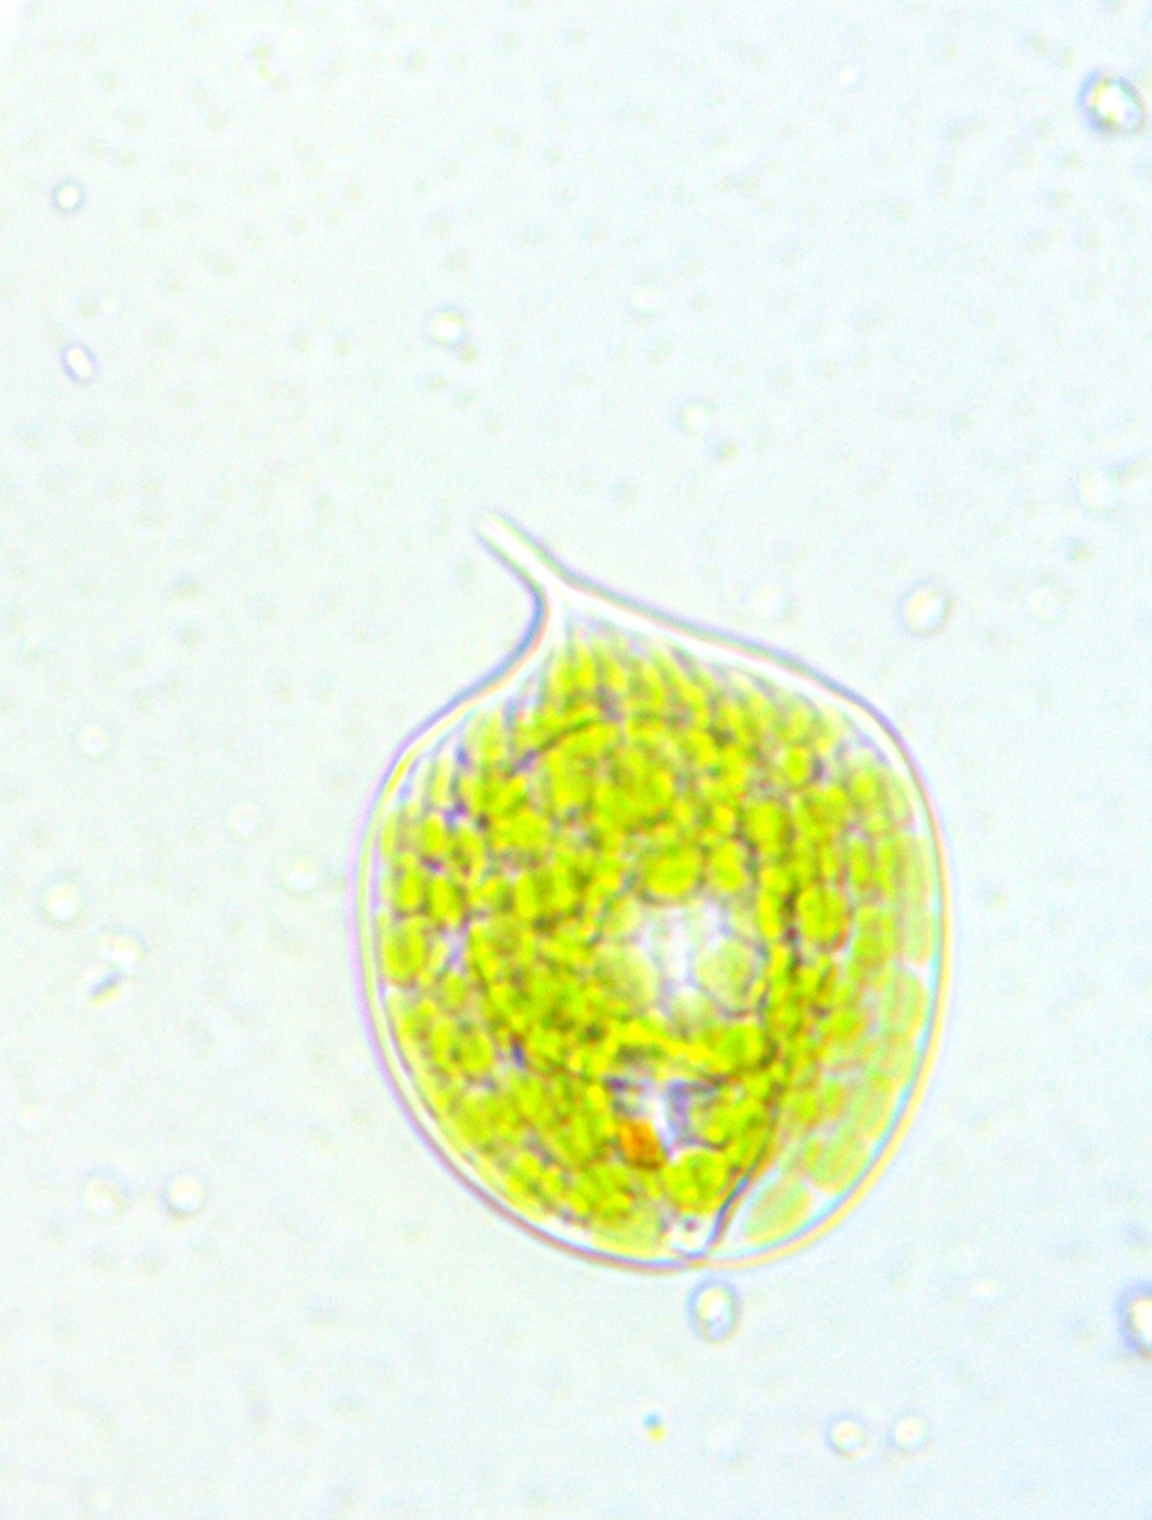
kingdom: Protozoa
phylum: Euglenozoa
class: Euglenoidea
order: Euglenida
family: Phacidae
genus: Phacus
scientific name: Phacus orbicularis
